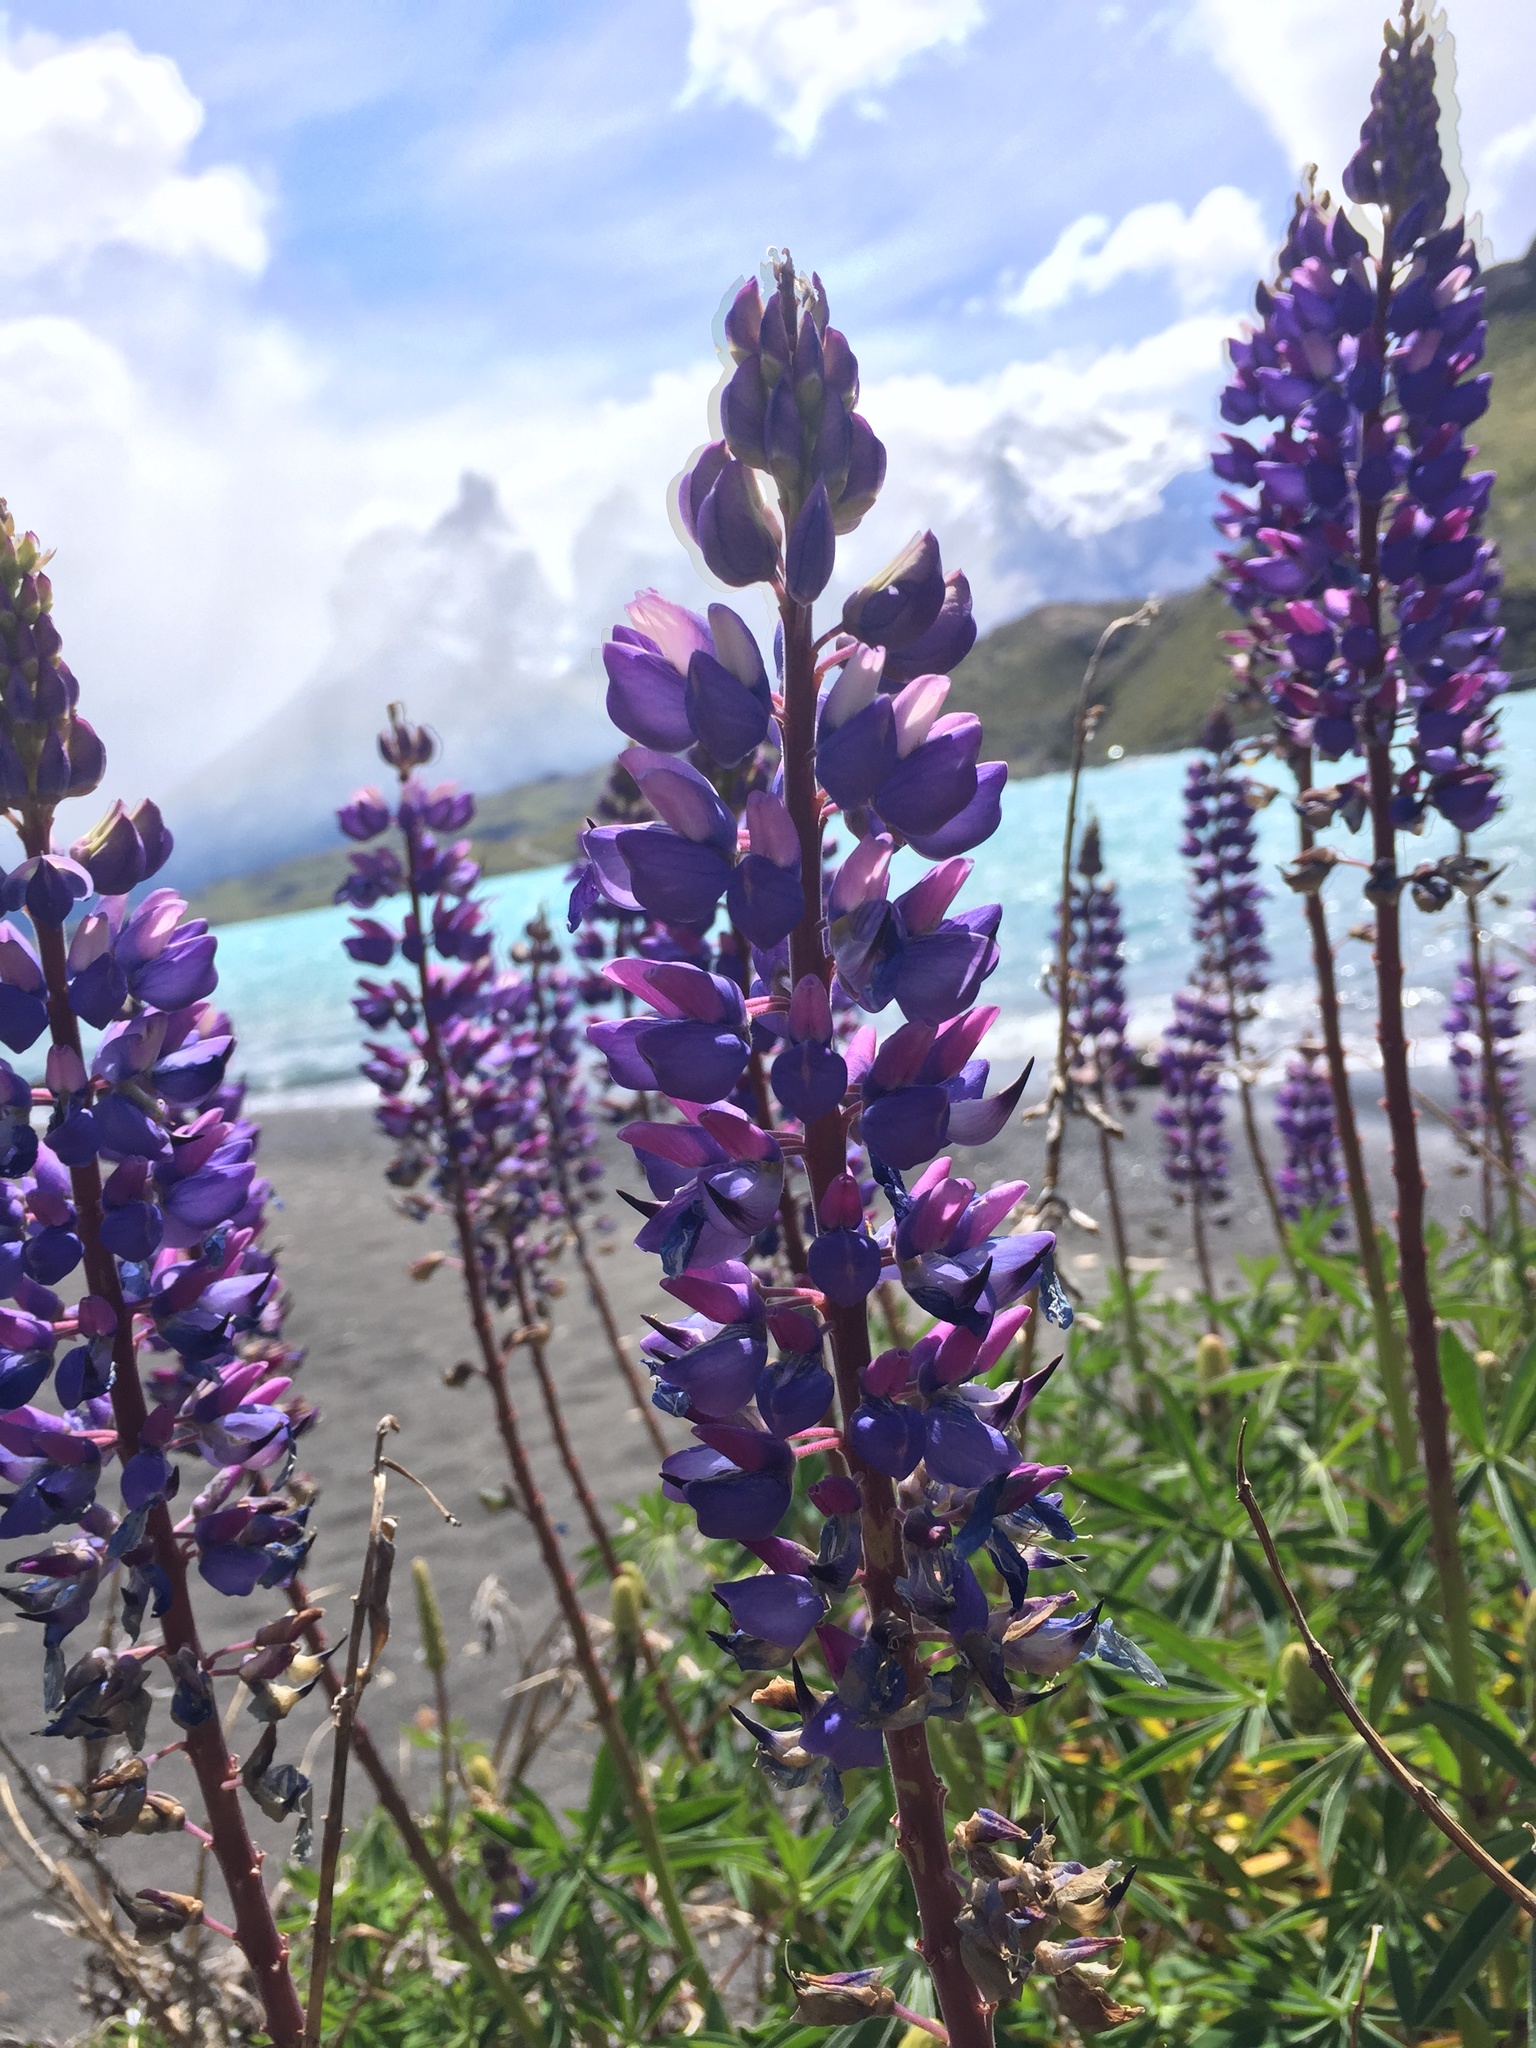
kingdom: Plantae
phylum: Tracheophyta
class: Magnoliopsida
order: Fabales
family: Fabaceae
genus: Lupinus
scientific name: Lupinus polyphyllus
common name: Garden lupin
